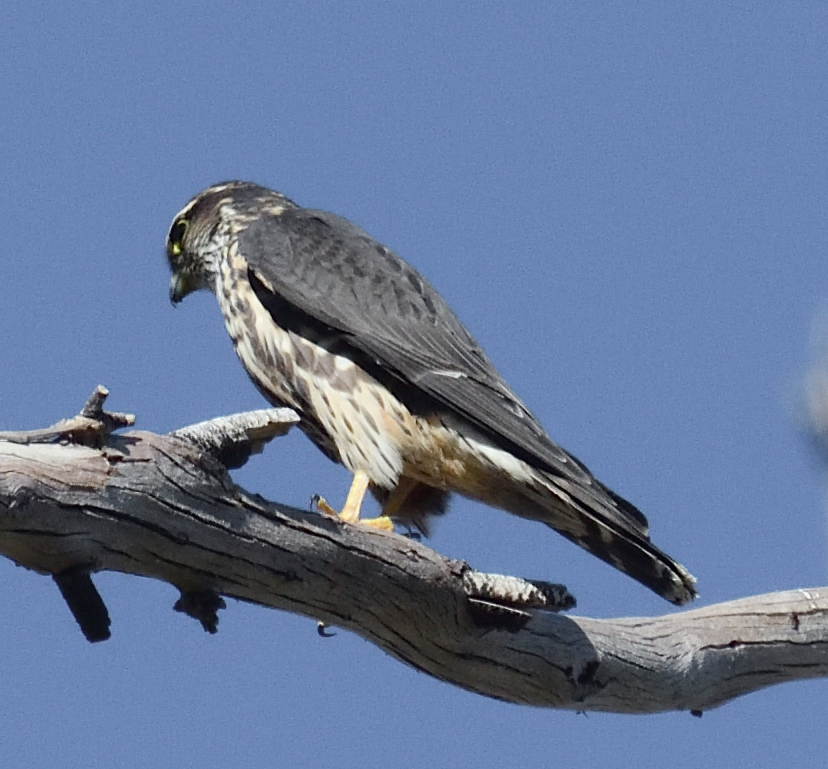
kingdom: Animalia
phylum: Chordata
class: Aves
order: Falconiformes
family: Falconidae
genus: Falco
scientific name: Falco columbarius
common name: Merlin
